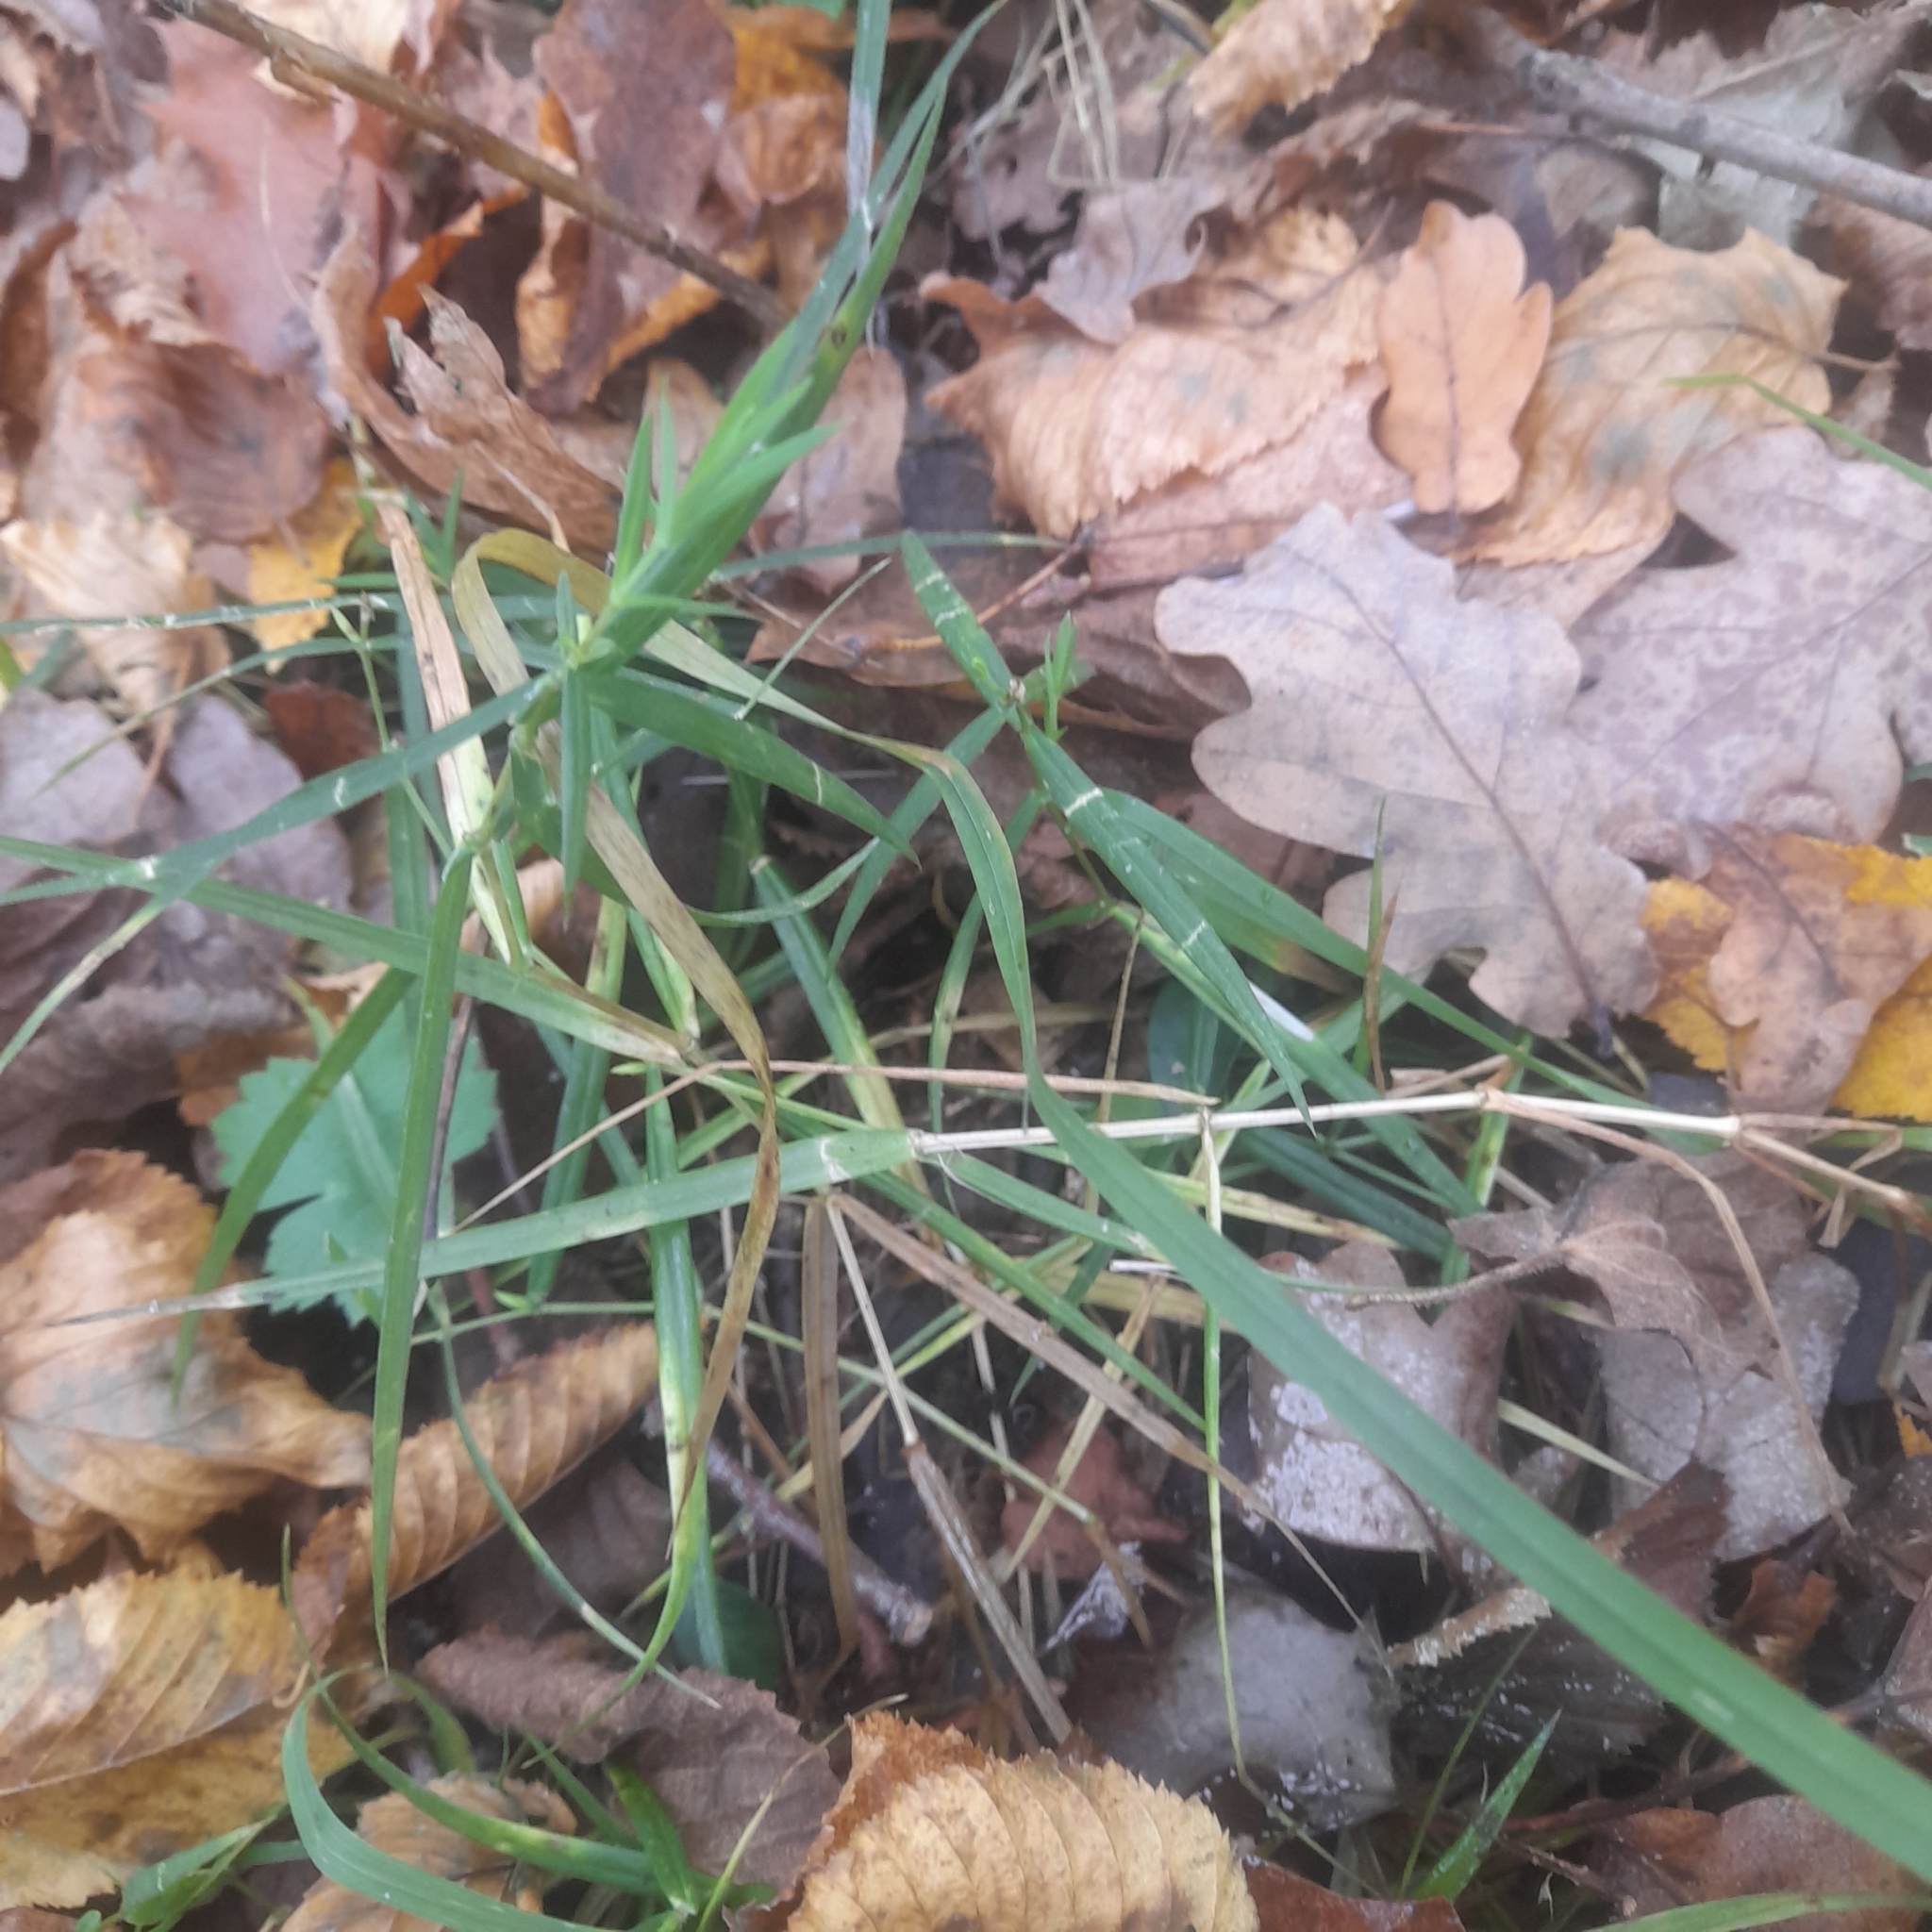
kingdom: Plantae
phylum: Tracheophyta
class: Magnoliopsida
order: Caryophyllales
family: Caryophyllaceae
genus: Rabelera
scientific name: Rabelera holostea
